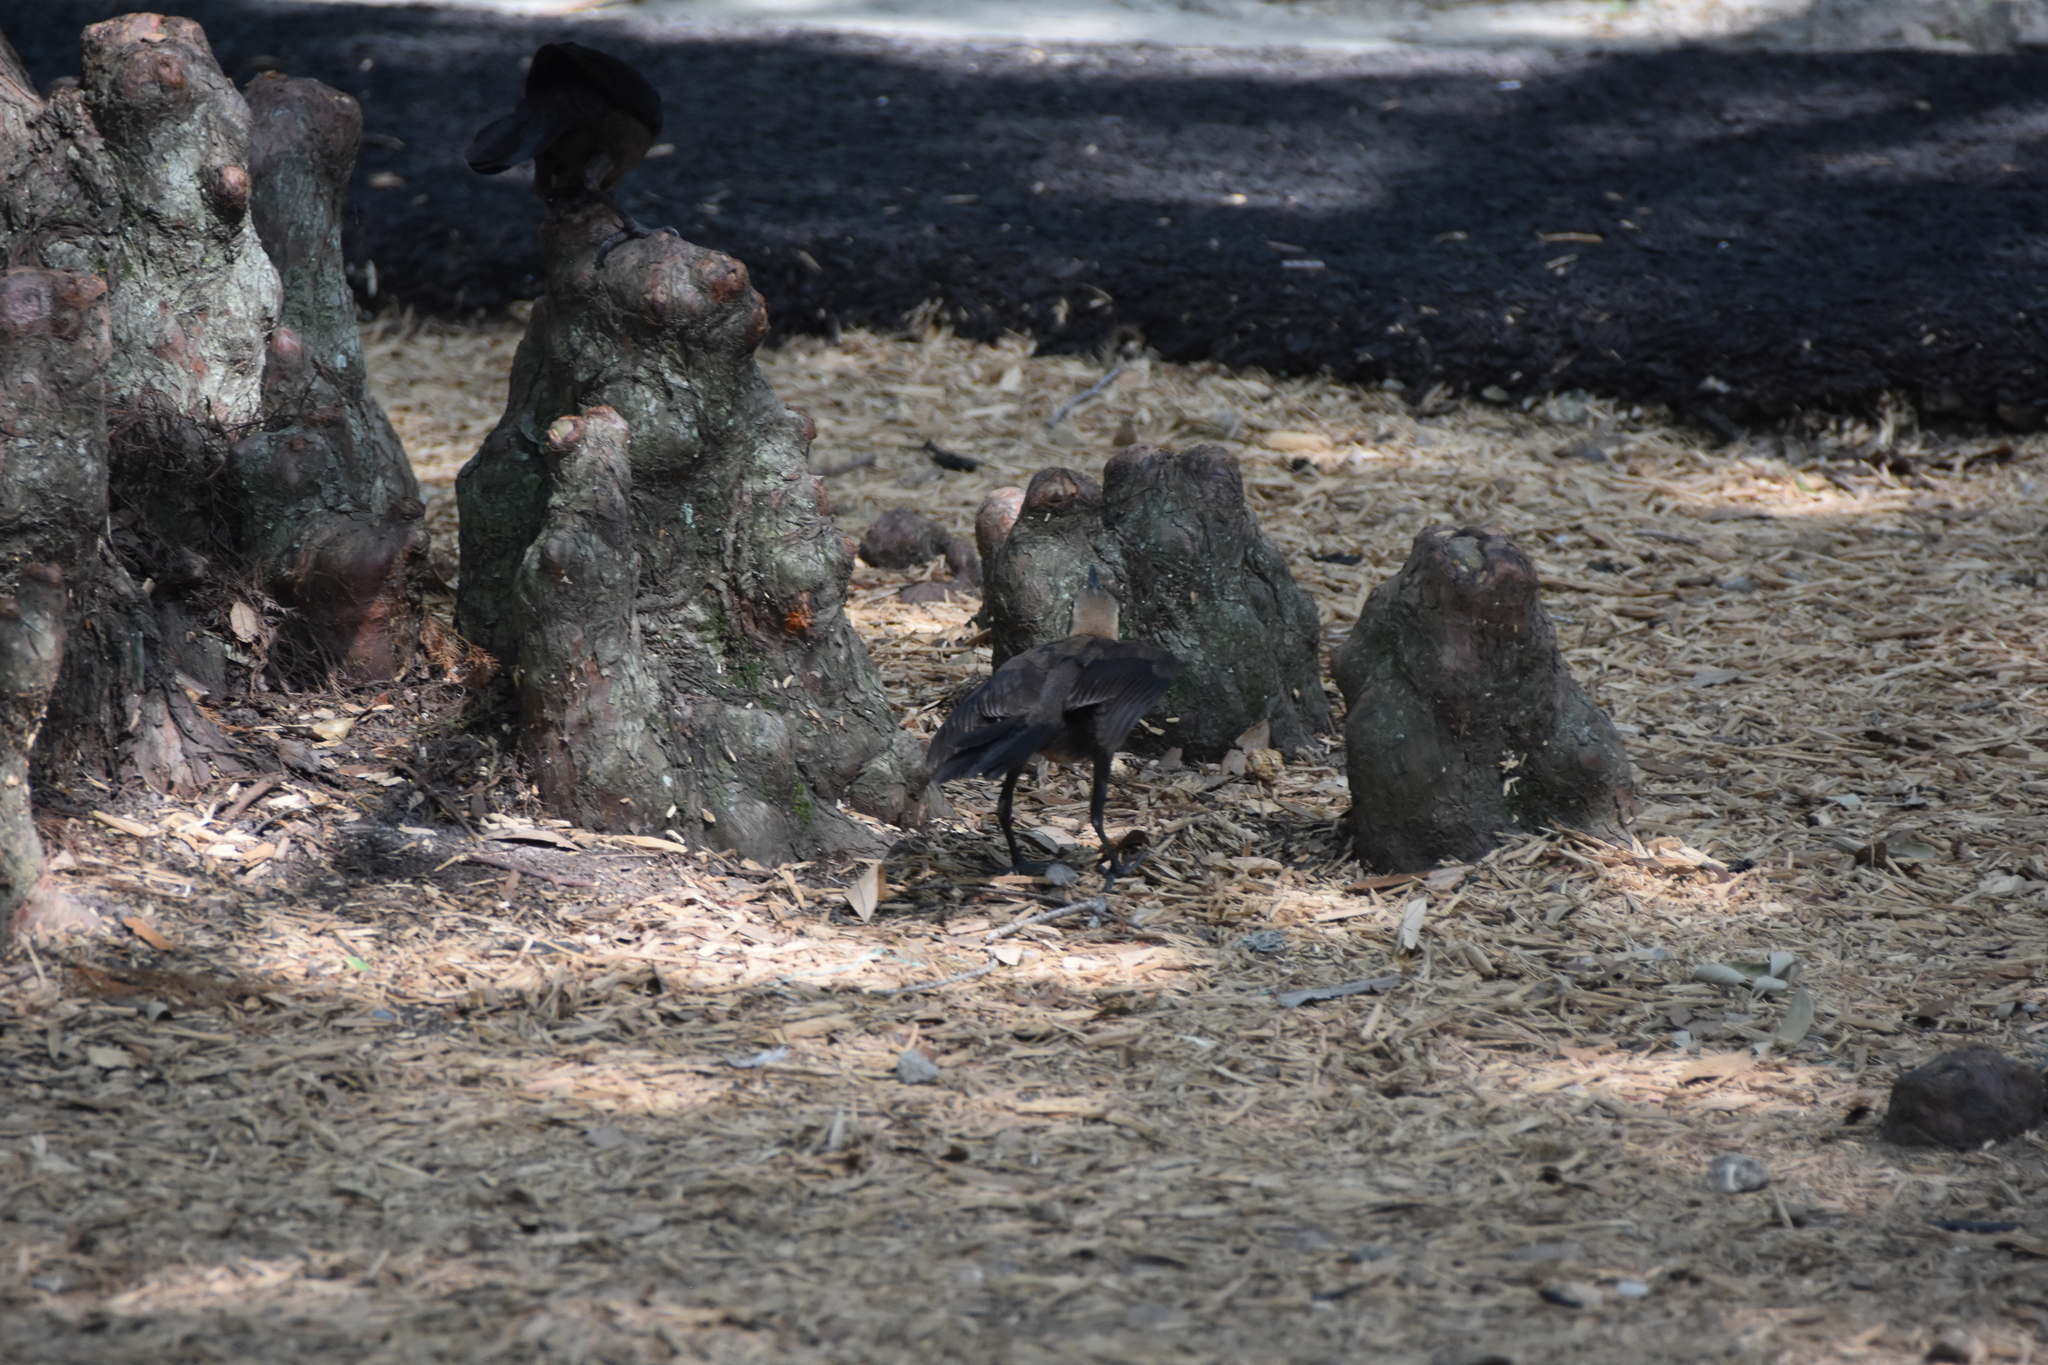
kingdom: Animalia
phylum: Chordata
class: Aves
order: Passeriformes
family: Icteridae
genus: Quiscalus
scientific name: Quiscalus mexicanus
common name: Great-tailed grackle
